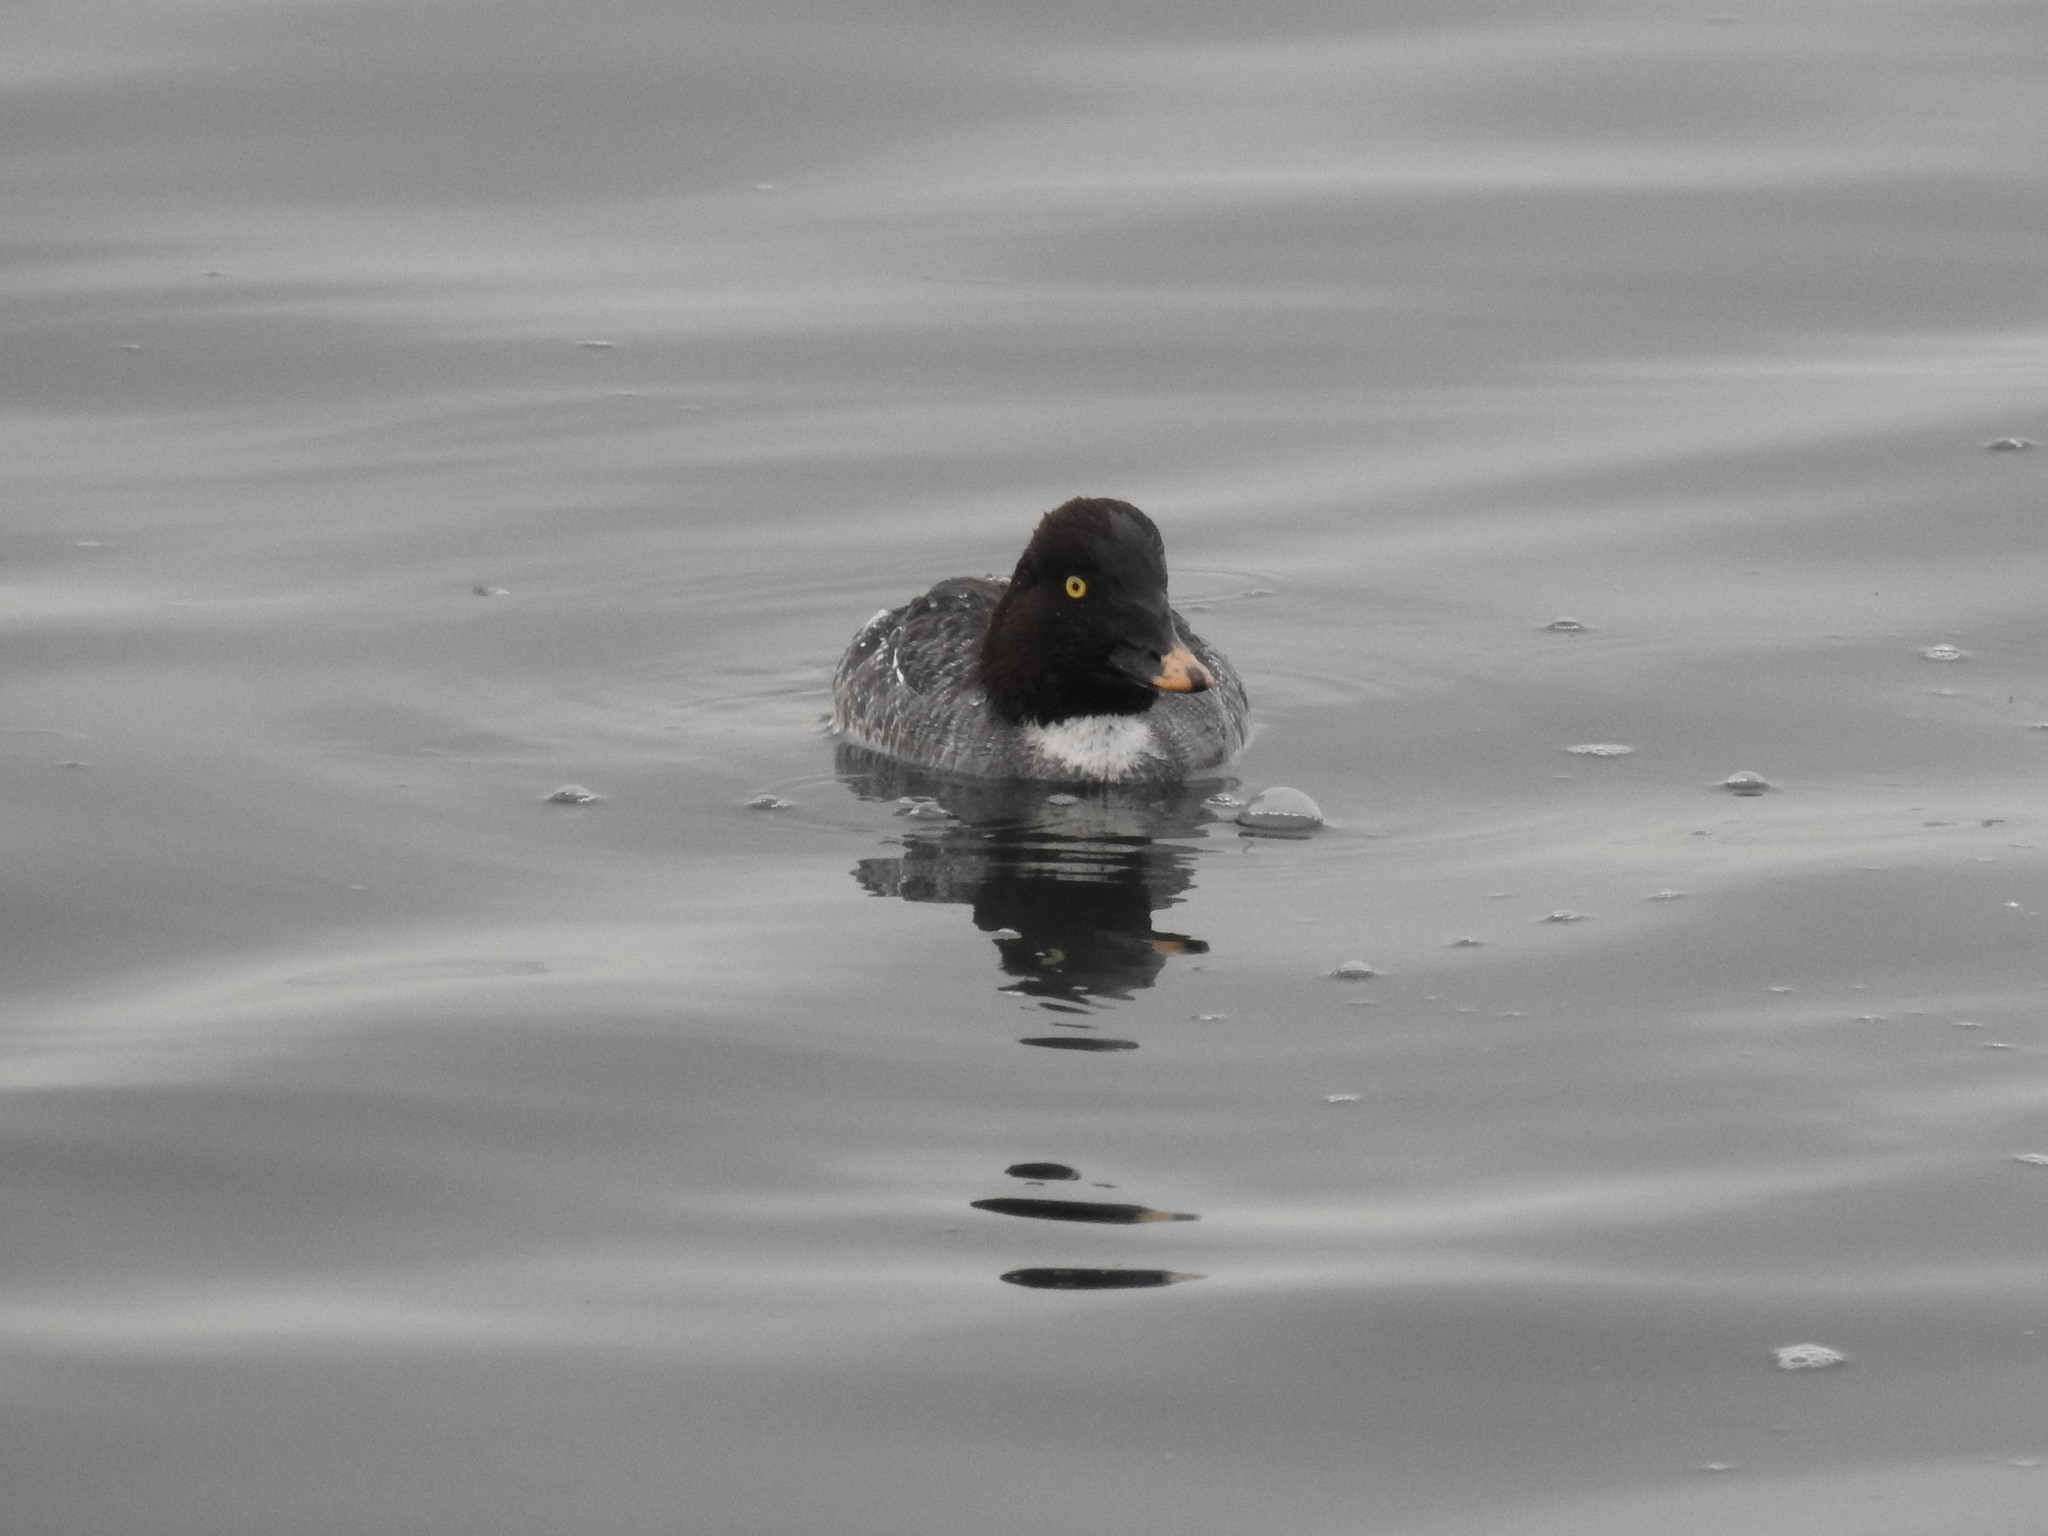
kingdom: Animalia
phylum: Chordata
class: Aves
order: Anseriformes
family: Anatidae
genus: Bucephala
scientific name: Bucephala clangula
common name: Common goldeneye
